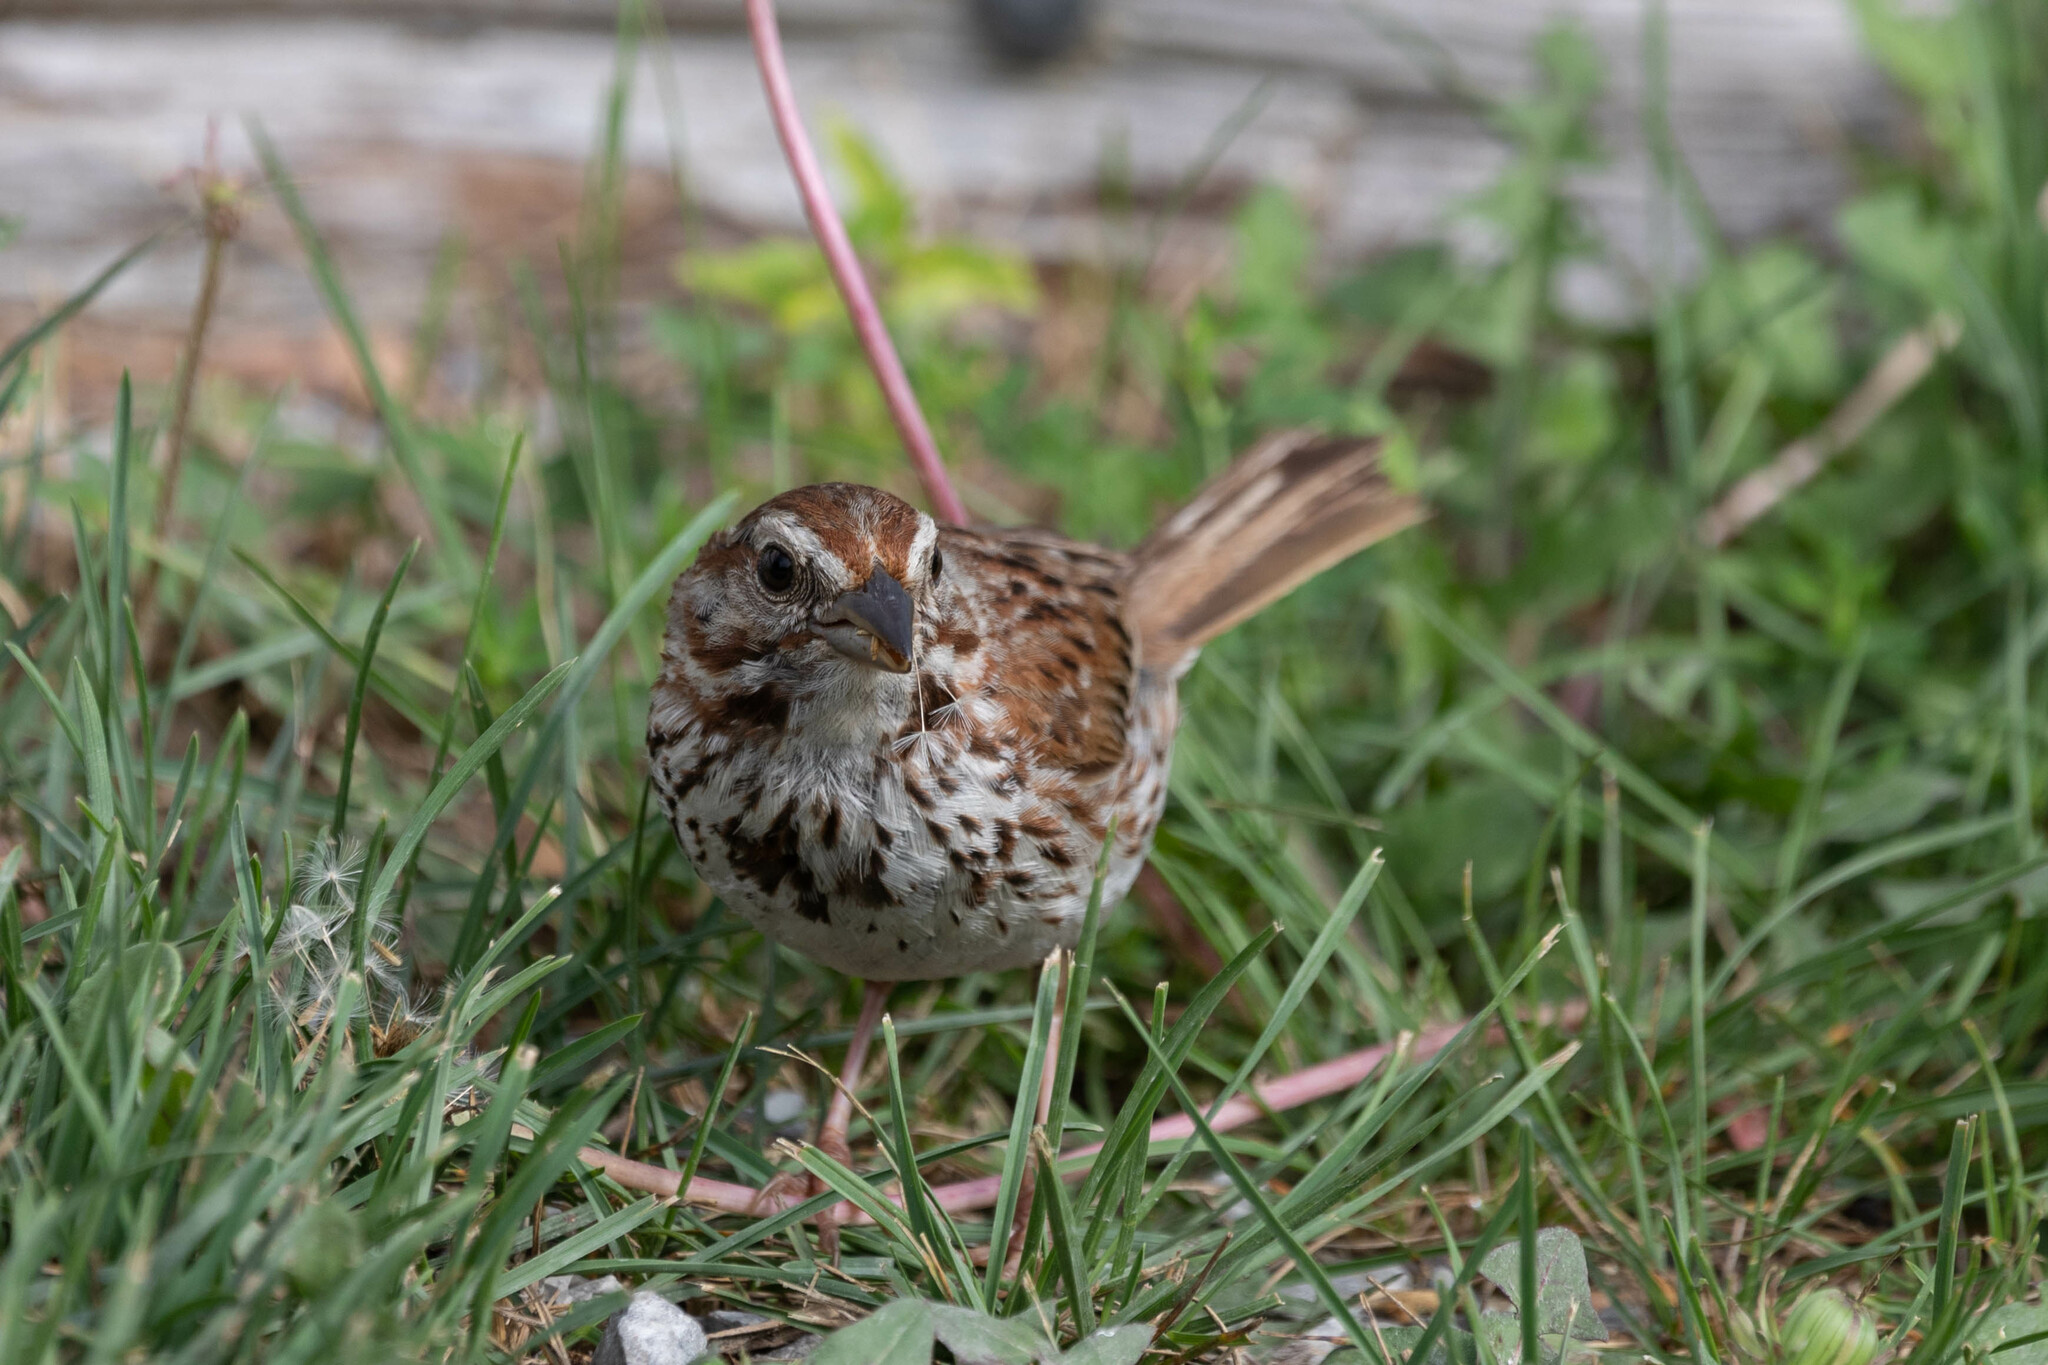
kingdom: Animalia
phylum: Chordata
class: Aves
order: Passeriformes
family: Passerellidae
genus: Melospiza
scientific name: Melospiza melodia
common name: Song sparrow
